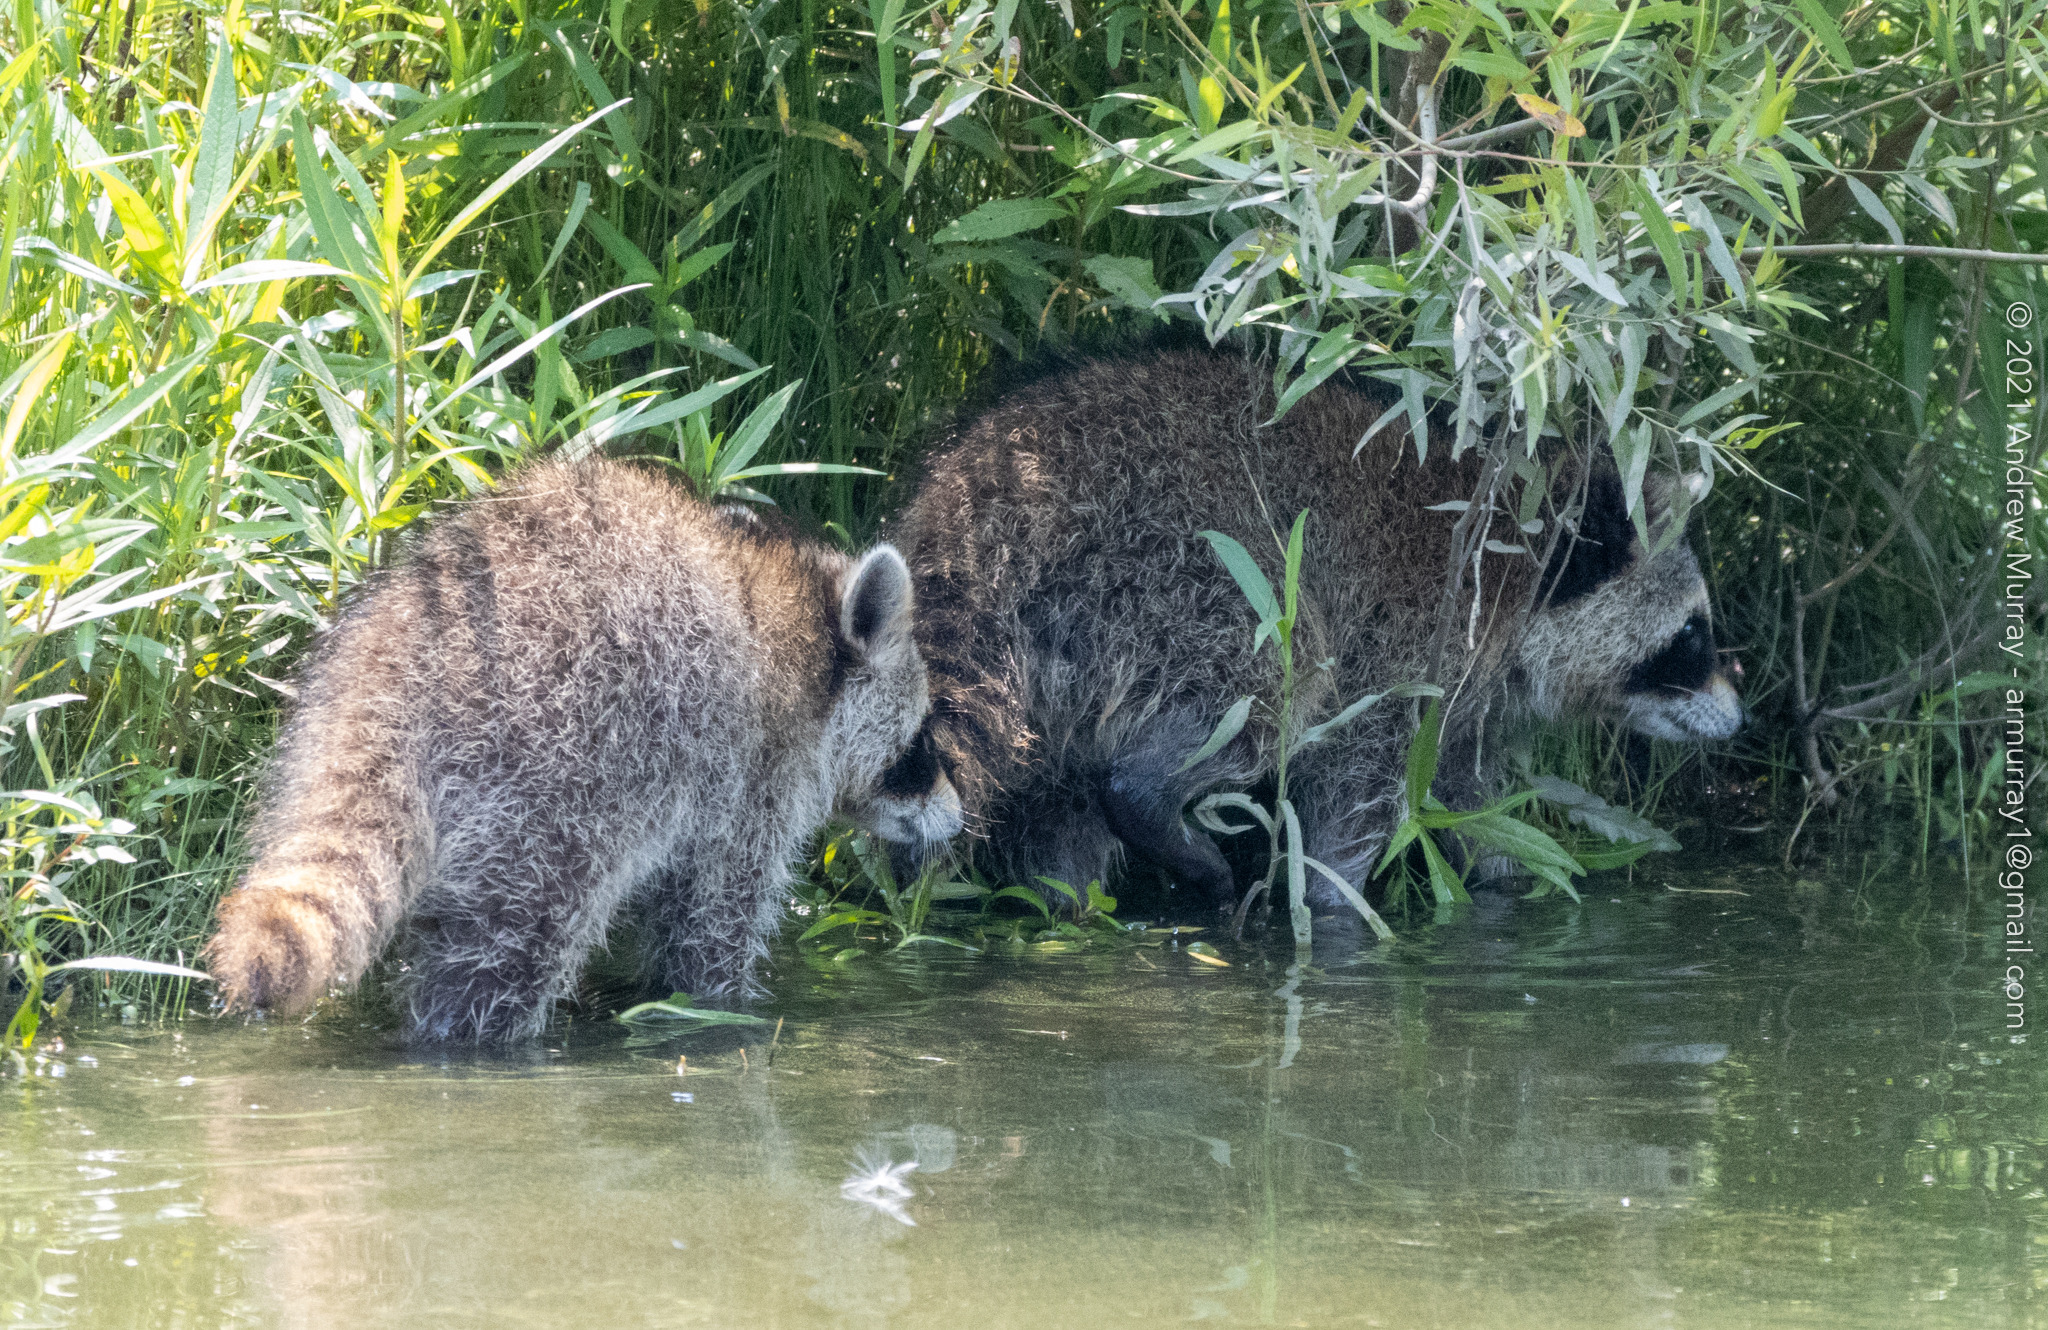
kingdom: Animalia
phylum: Chordata
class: Mammalia
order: Carnivora
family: Procyonidae
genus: Procyon
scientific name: Procyon lotor
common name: Raccoon
